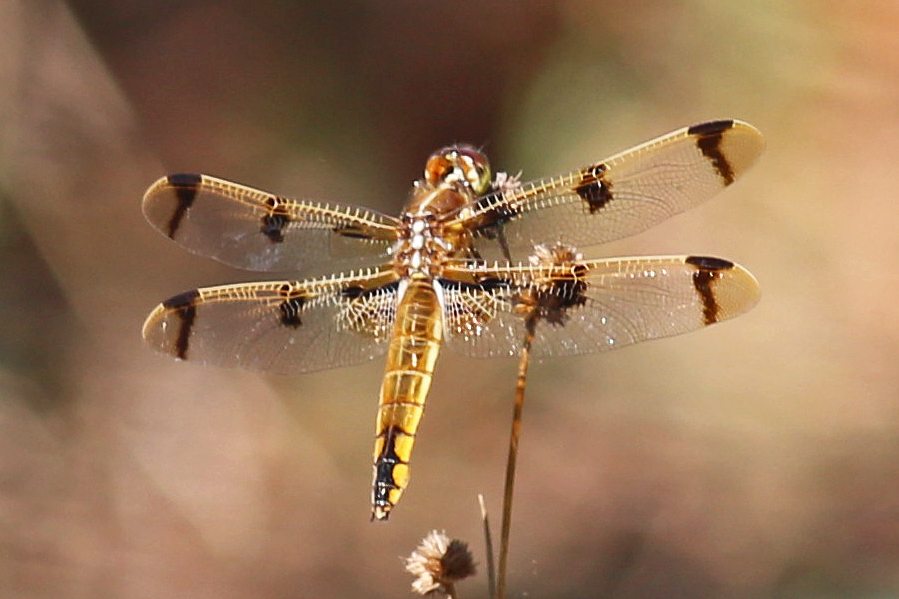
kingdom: Animalia
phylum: Arthropoda
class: Insecta
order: Odonata
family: Libellulidae
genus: Libellula
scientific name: Libellula semifasciata
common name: Painted skimmer
